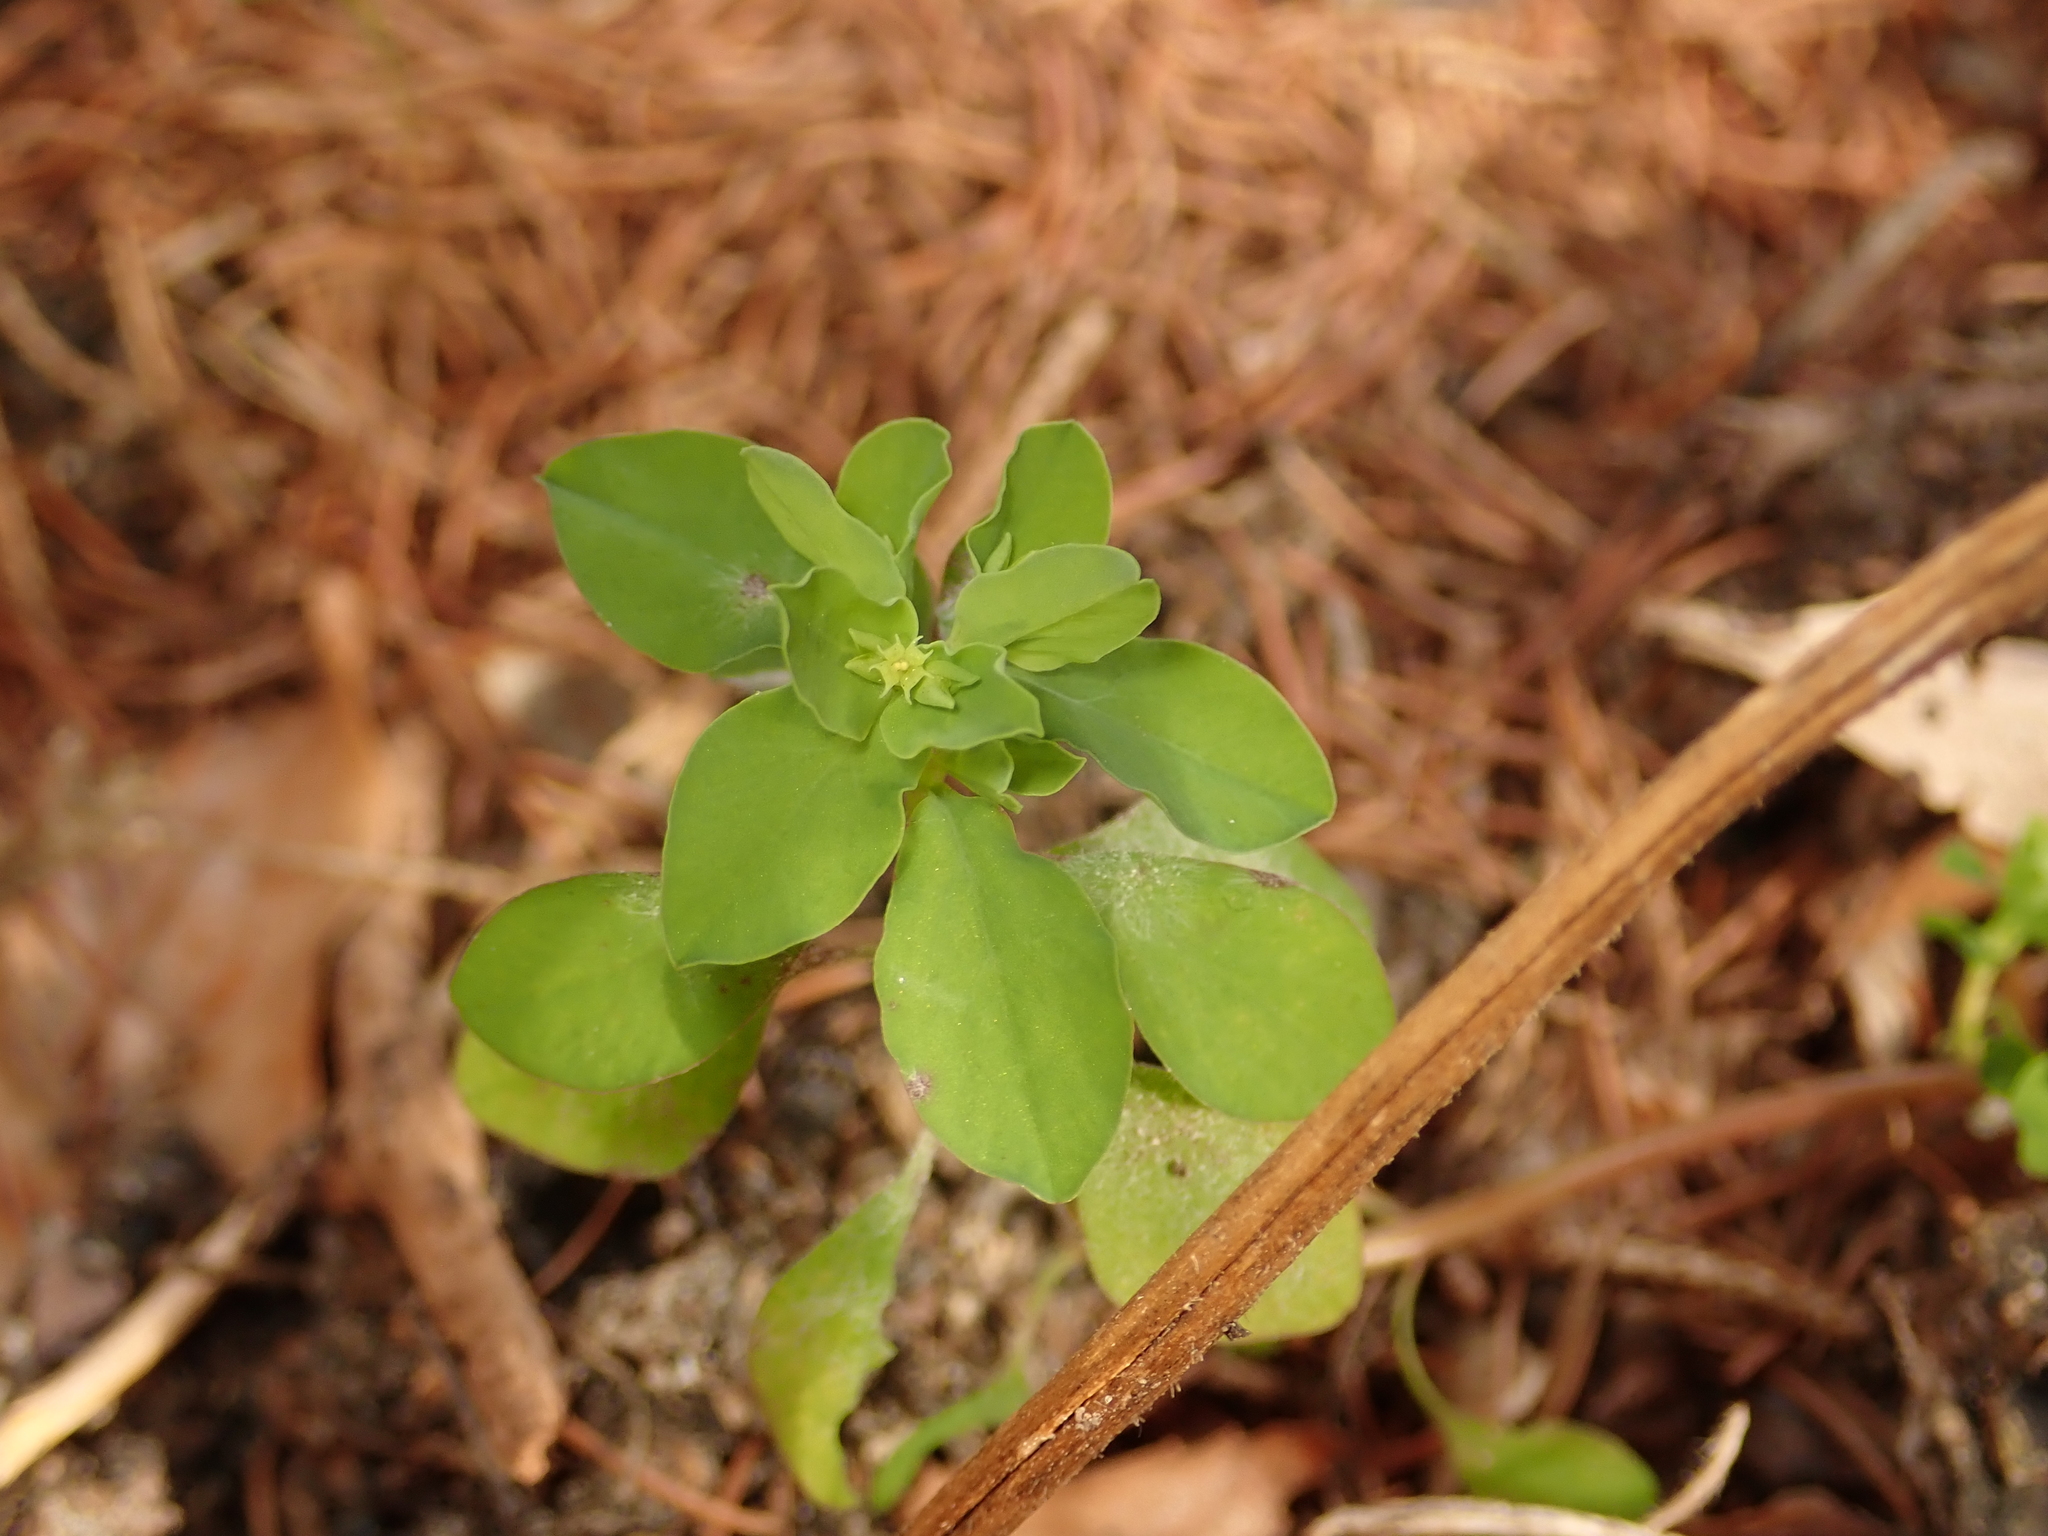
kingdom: Plantae
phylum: Tracheophyta
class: Magnoliopsida
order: Malpighiales
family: Euphorbiaceae
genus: Euphorbia
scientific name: Euphorbia peplus
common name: Petty spurge
